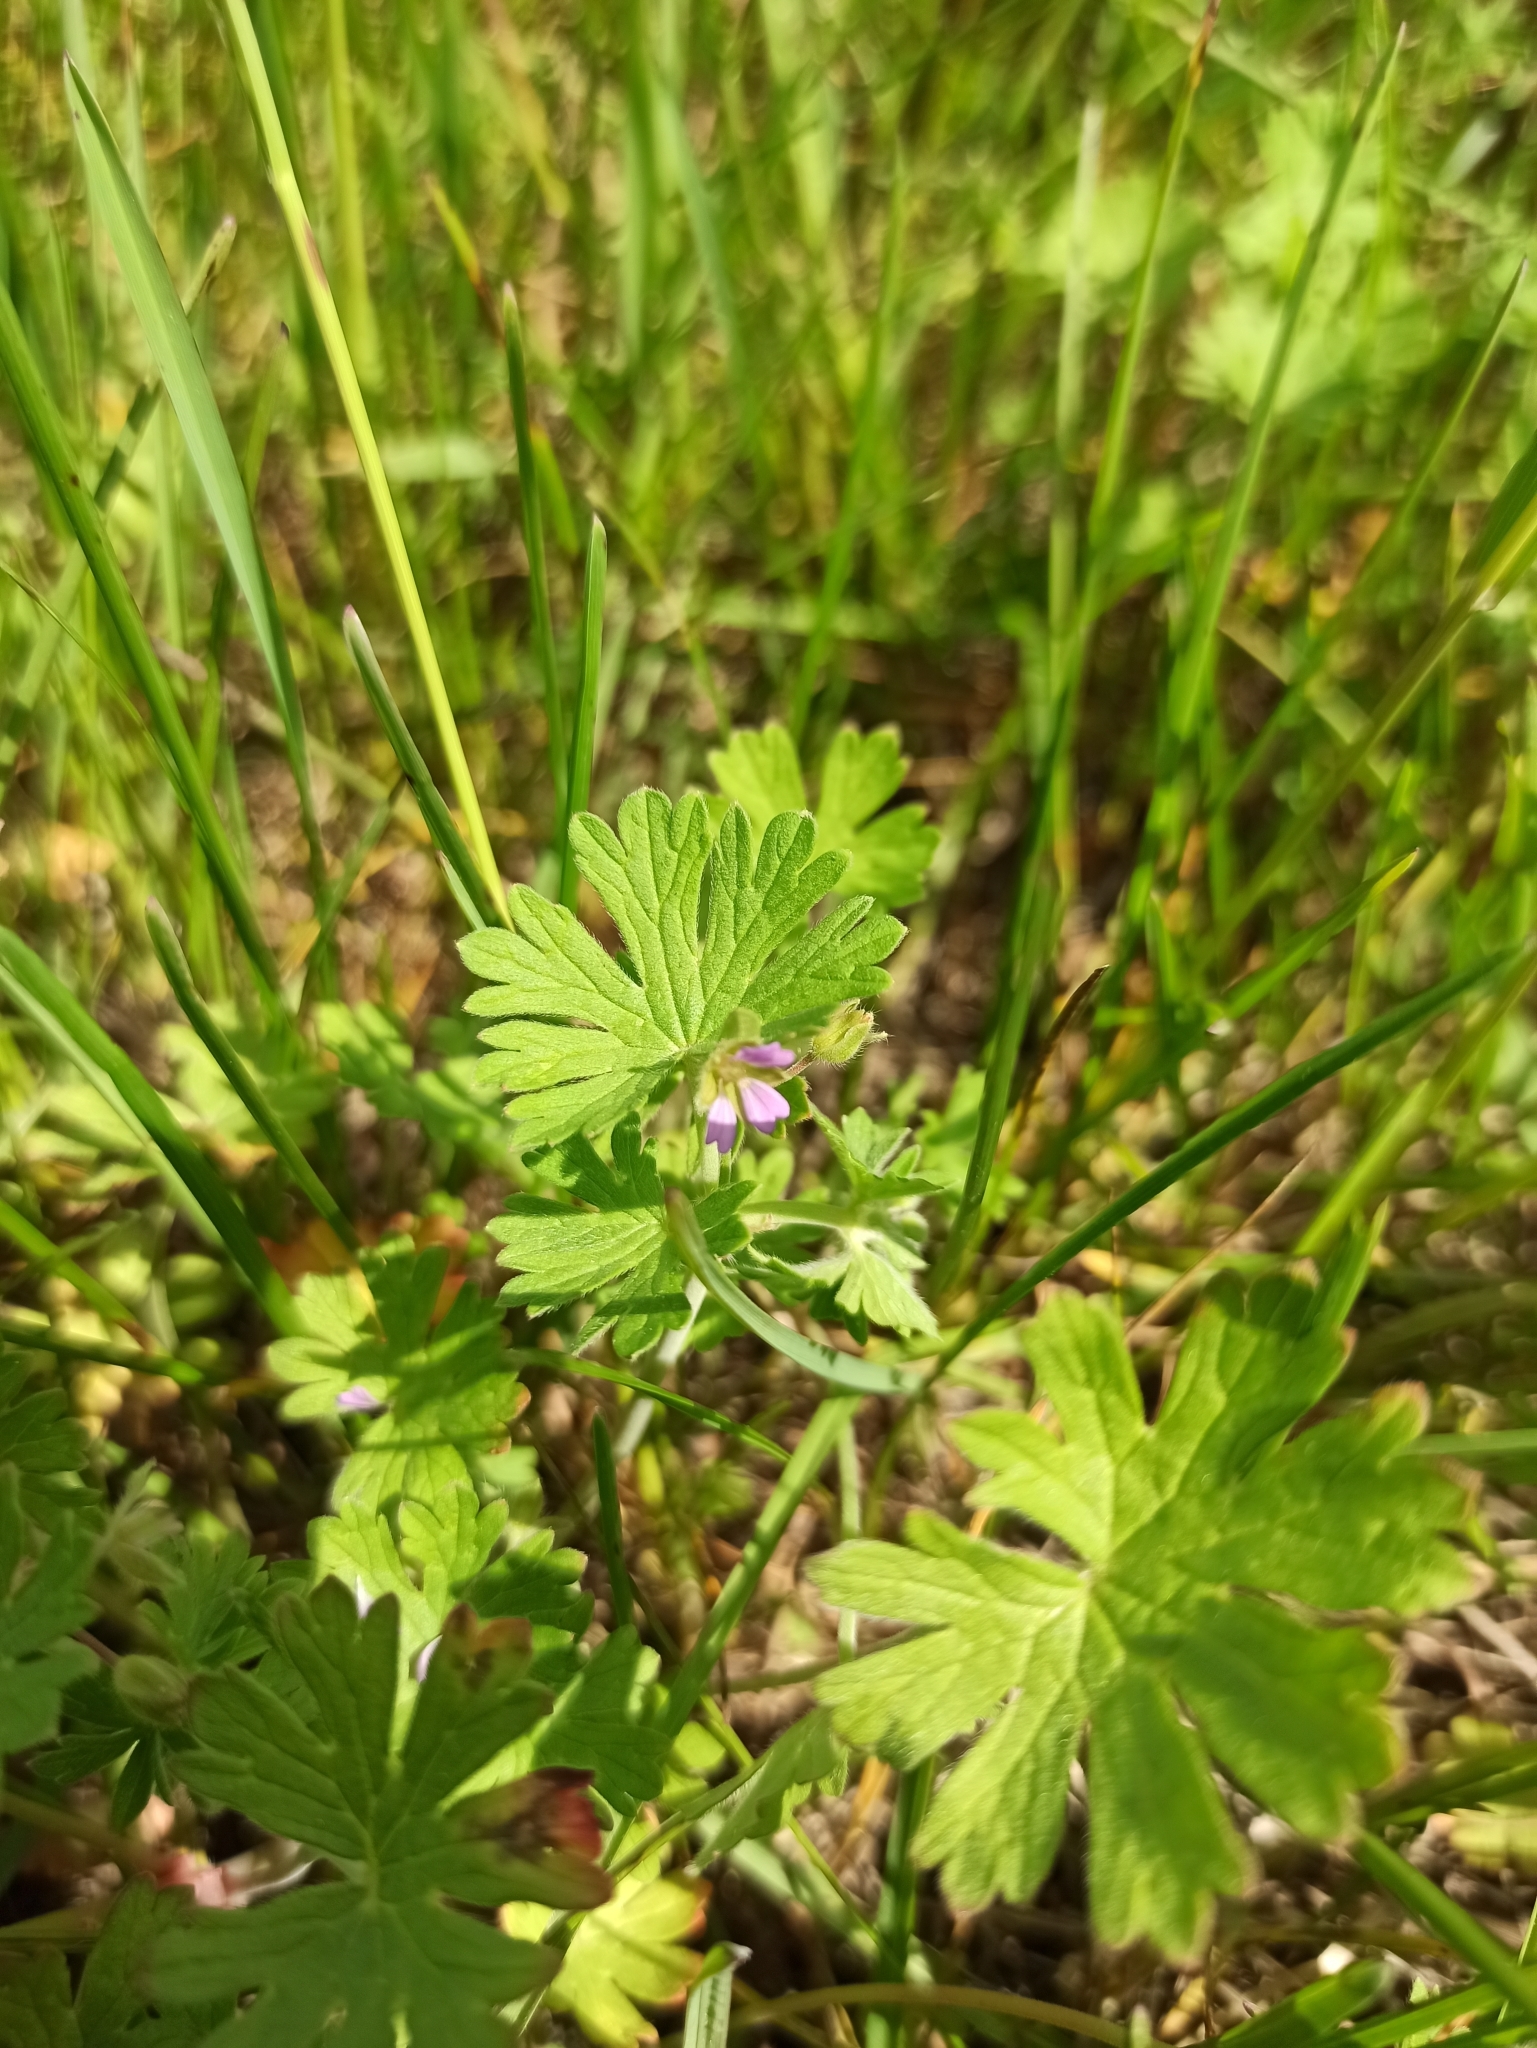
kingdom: Plantae
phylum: Tracheophyta
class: Magnoliopsida
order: Geraniales
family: Geraniaceae
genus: Geranium
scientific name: Geranium pusillum
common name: Small geranium
